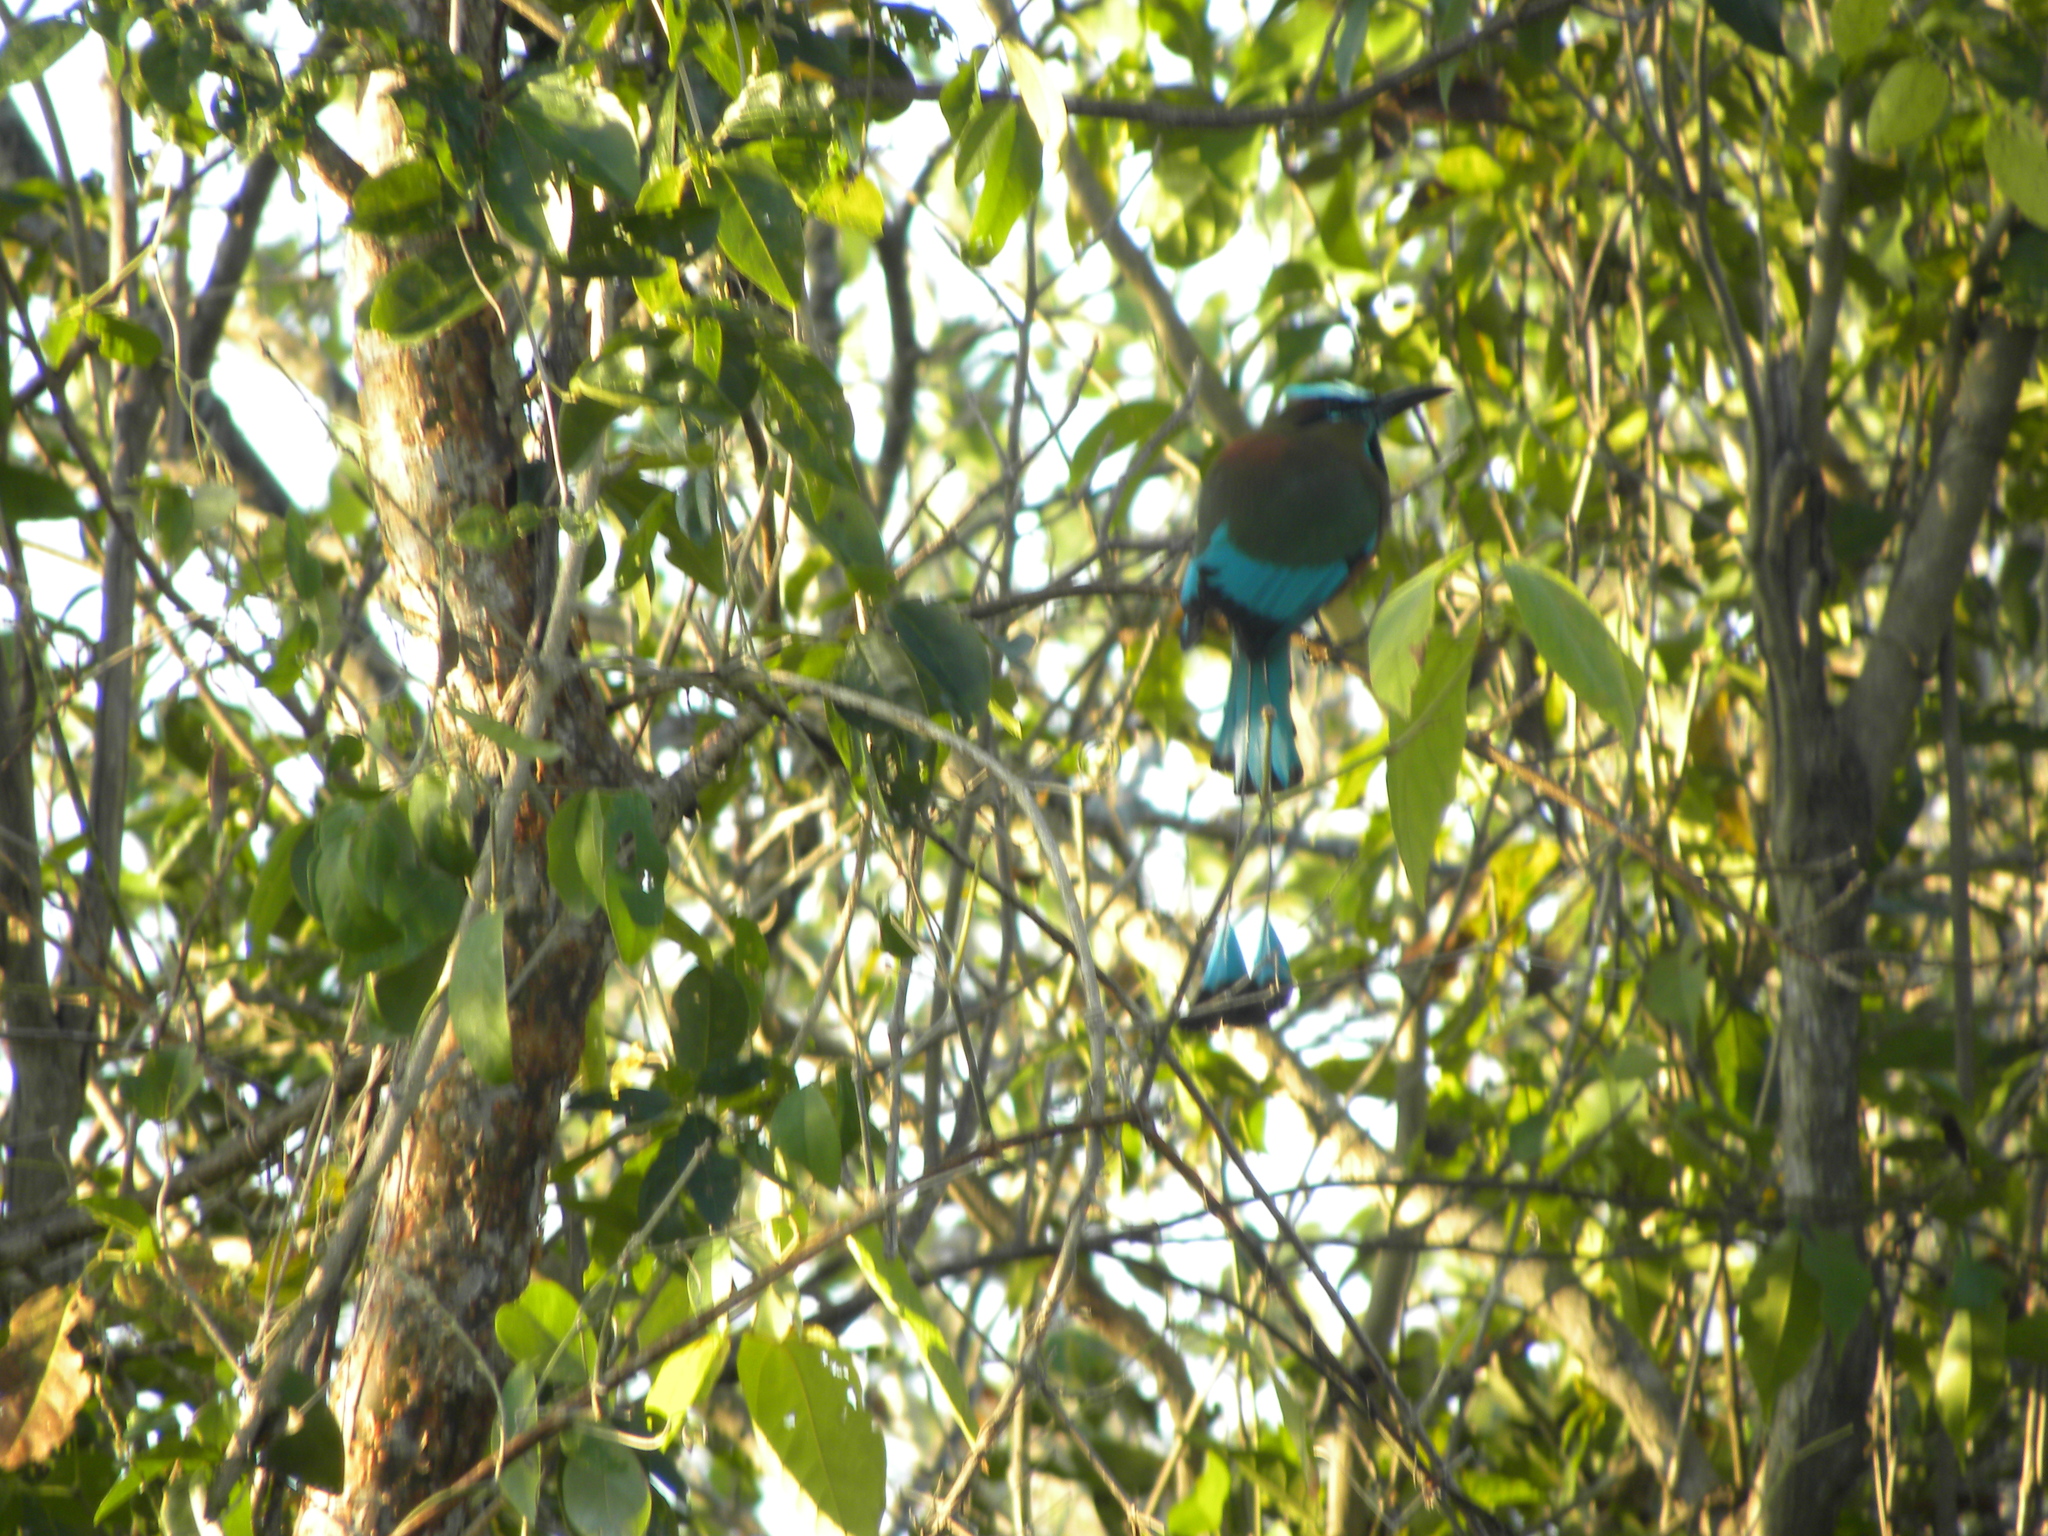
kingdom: Animalia
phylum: Chordata
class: Aves
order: Coraciiformes
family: Momotidae
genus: Eumomota
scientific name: Eumomota superciliosa
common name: Turquoise-browed motmot
